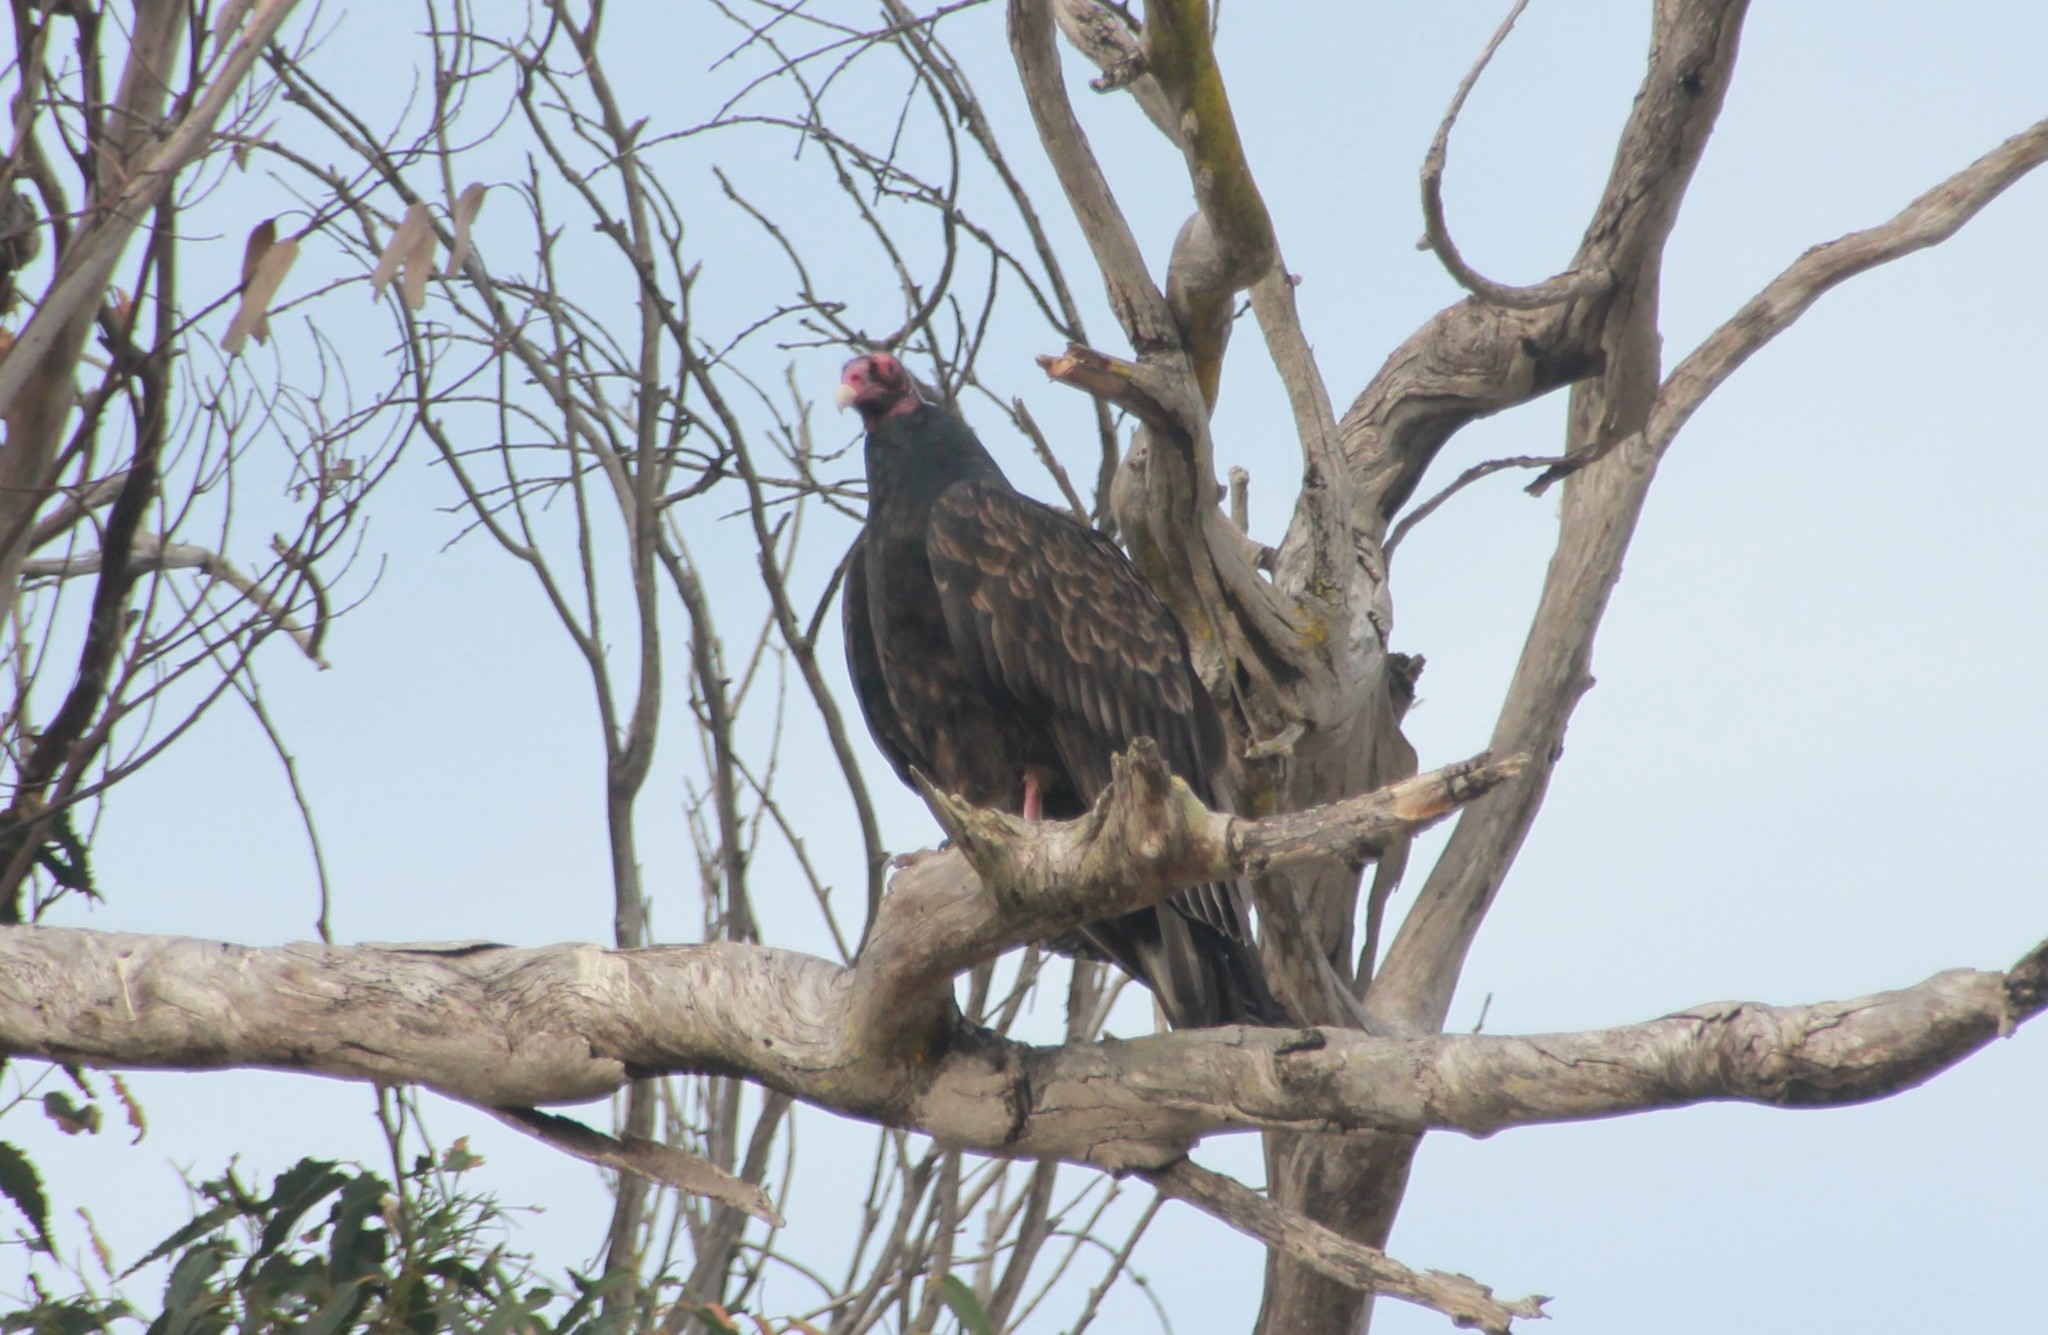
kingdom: Animalia
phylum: Chordata
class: Aves
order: Accipitriformes
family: Cathartidae
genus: Cathartes
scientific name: Cathartes aura
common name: Turkey vulture
